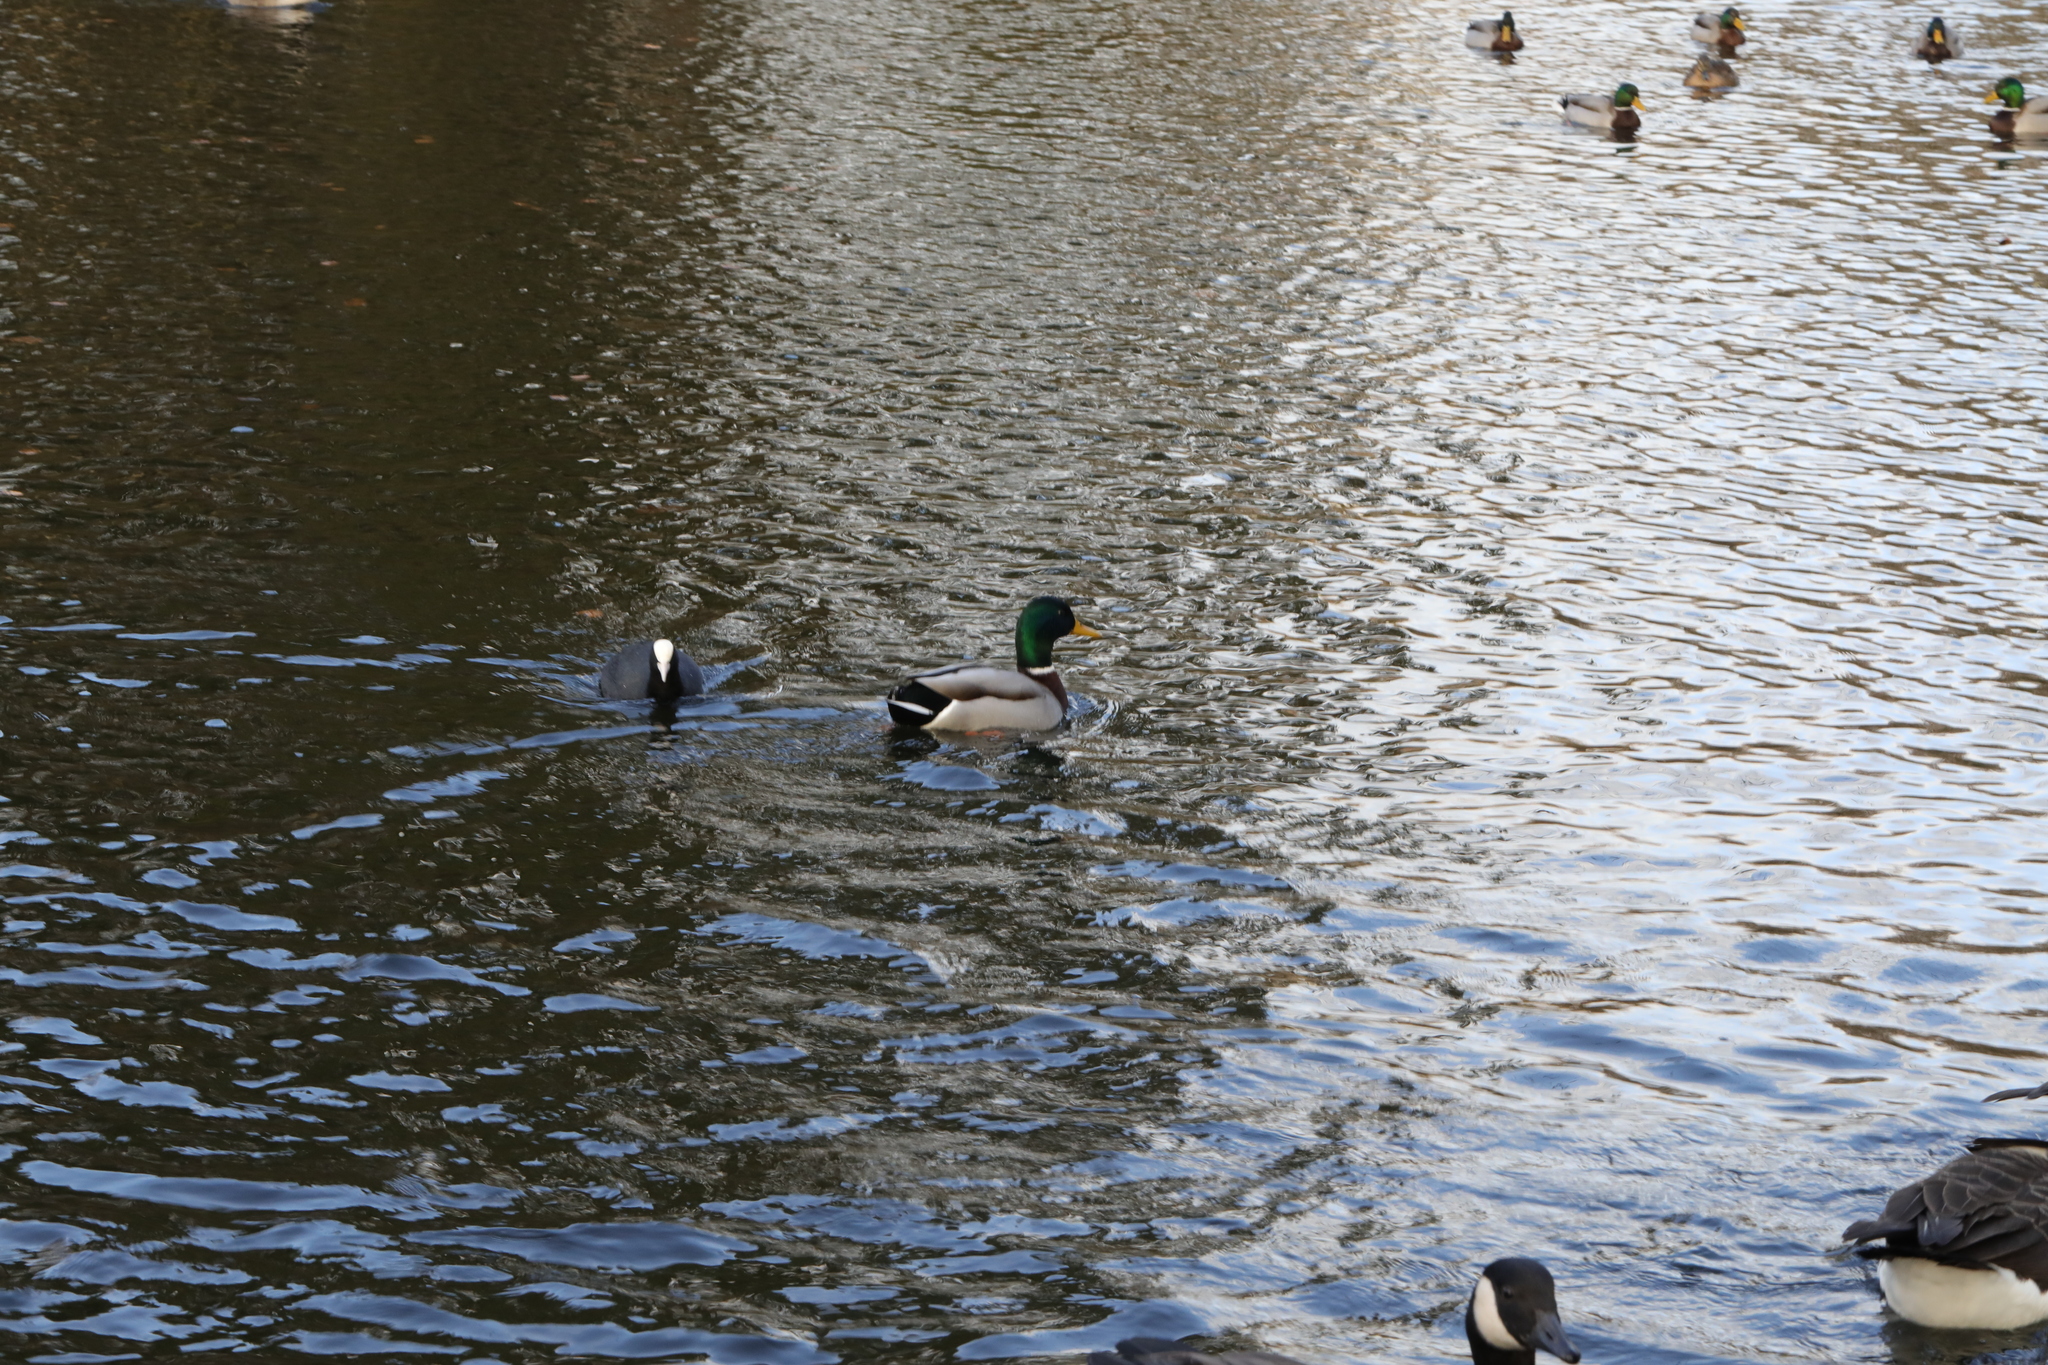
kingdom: Animalia
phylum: Chordata
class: Aves
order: Anseriformes
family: Anatidae
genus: Anas
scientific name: Anas platyrhynchos
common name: Mallard
